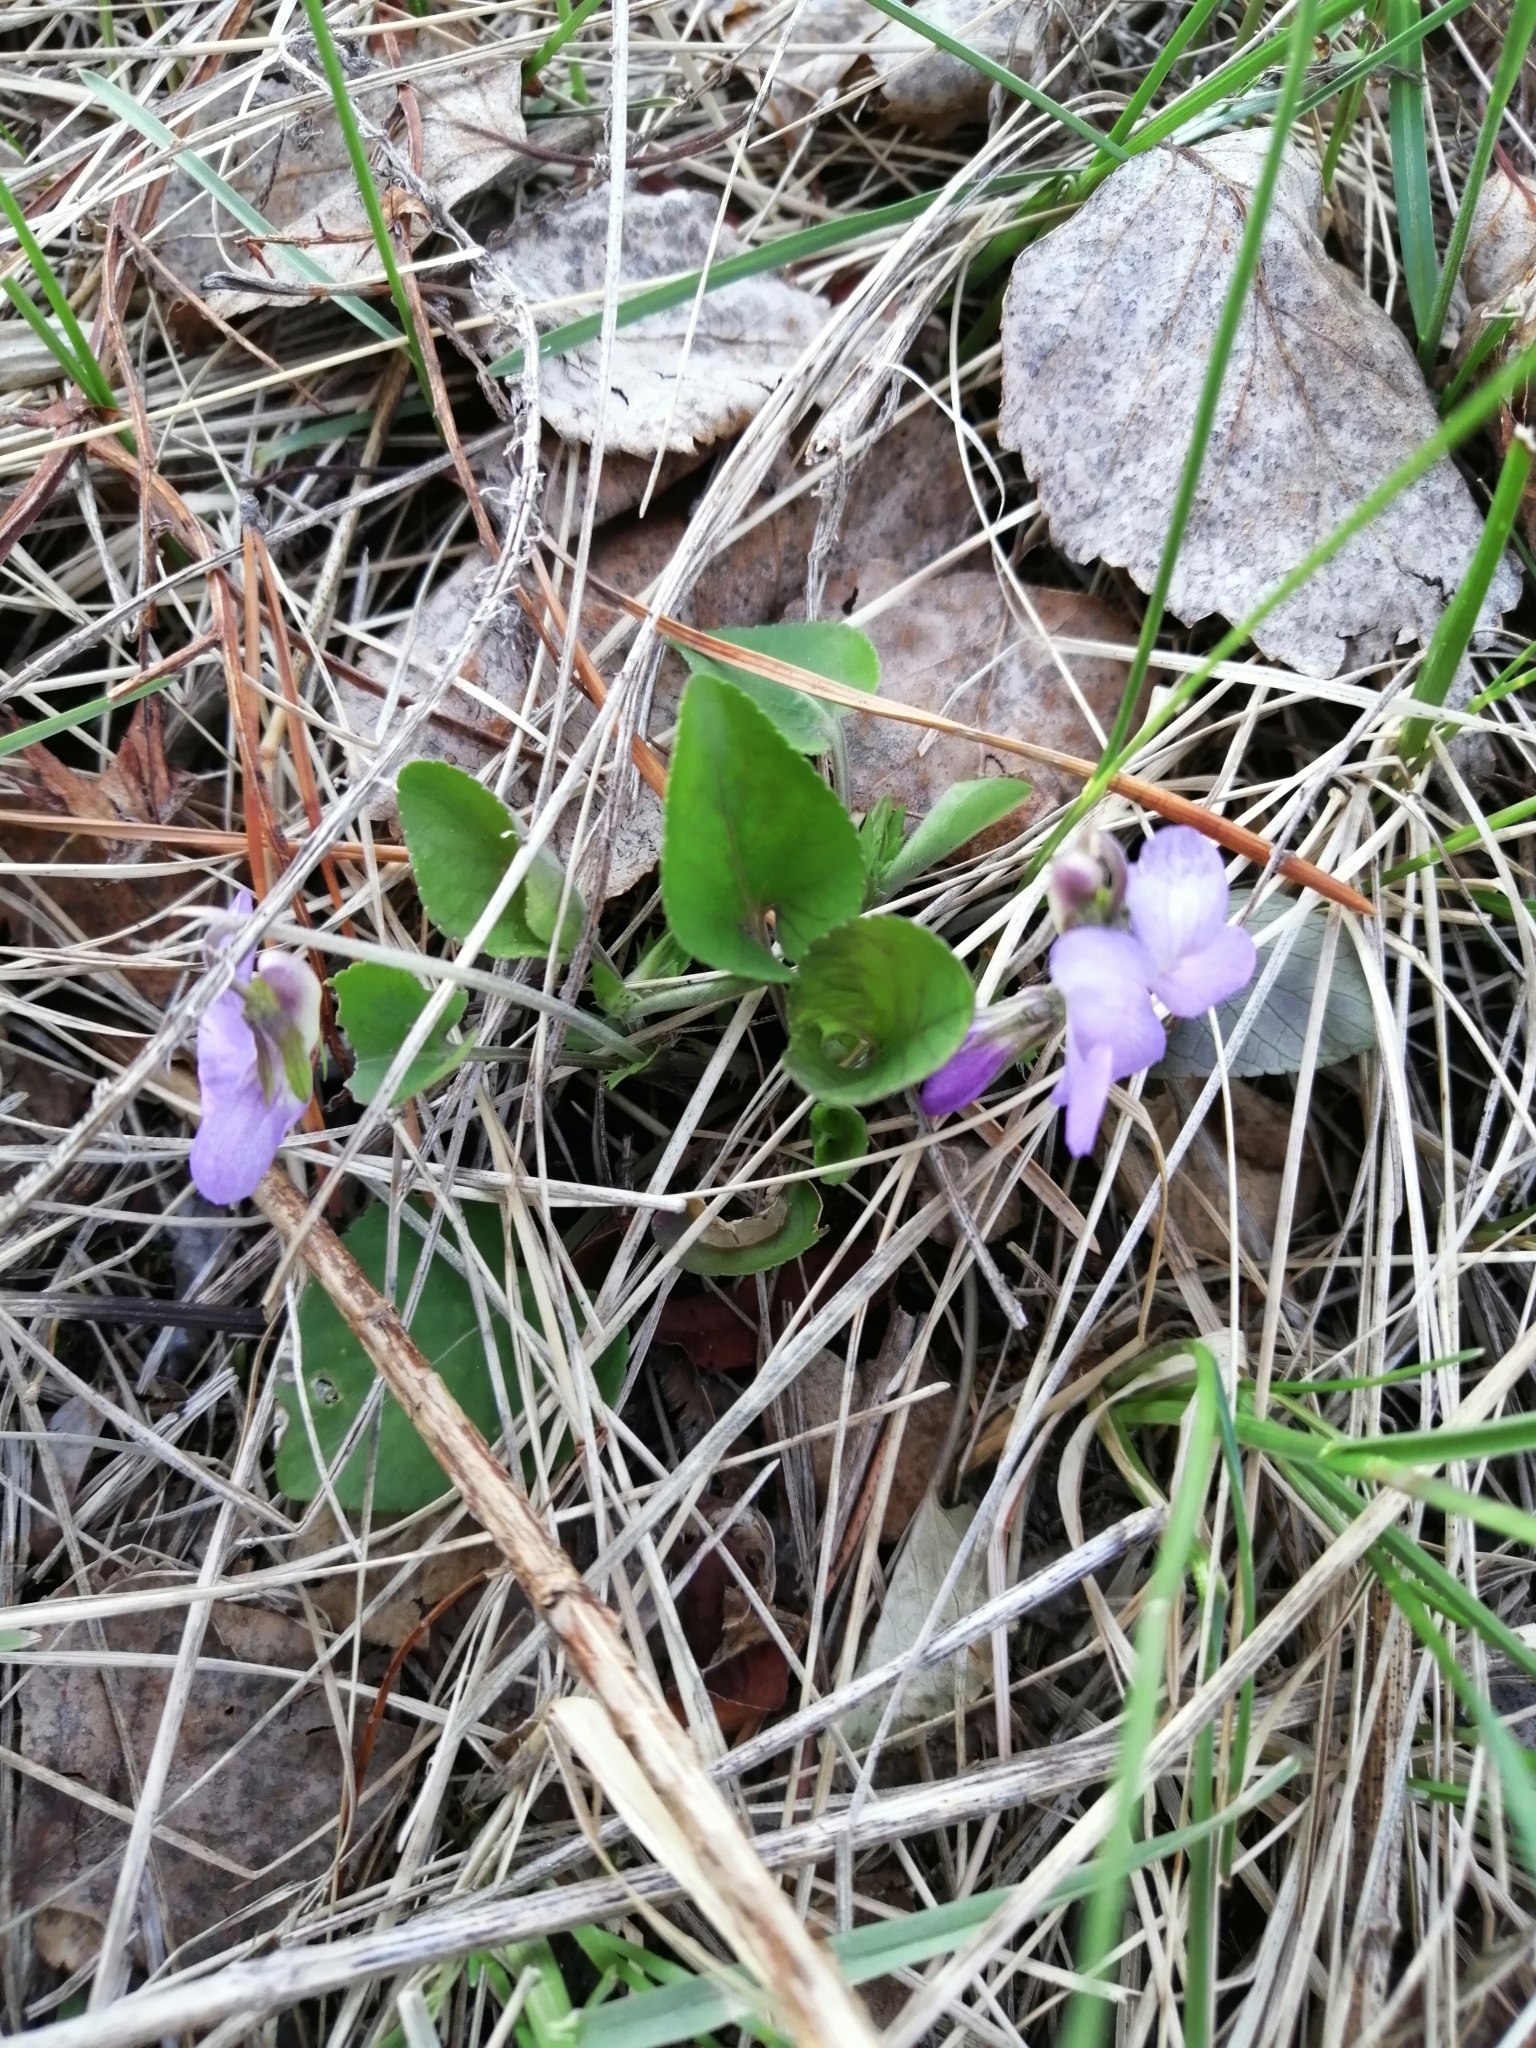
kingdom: Plantae
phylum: Tracheophyta
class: Magnoliopsida
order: Malpighiales
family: Violaceae
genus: Viola
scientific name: Viola rupestris
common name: Teesdale violet
